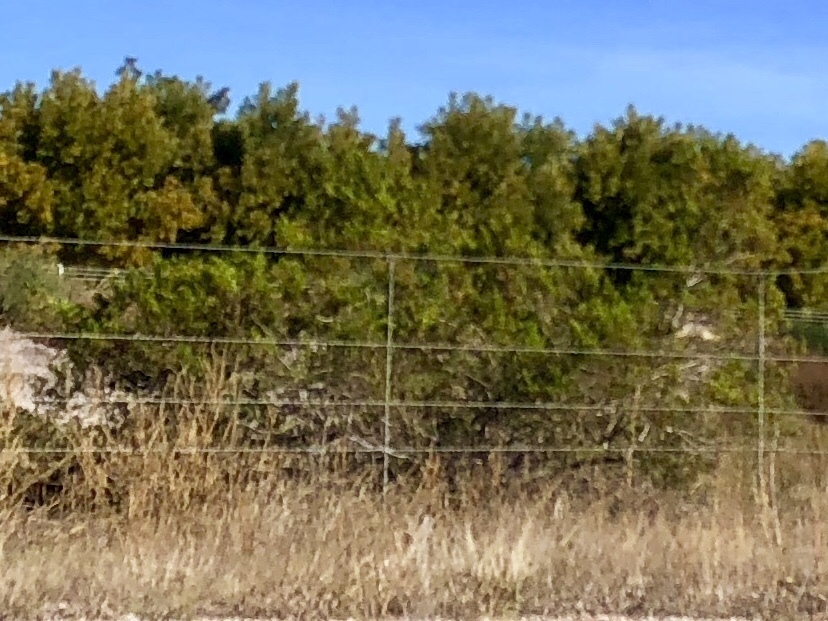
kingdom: Plantae
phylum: Tracheophyta
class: Magnoliopsida
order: Zygophyllales
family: Zygophyllaceae
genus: Larrea
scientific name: Larrea tridentata
